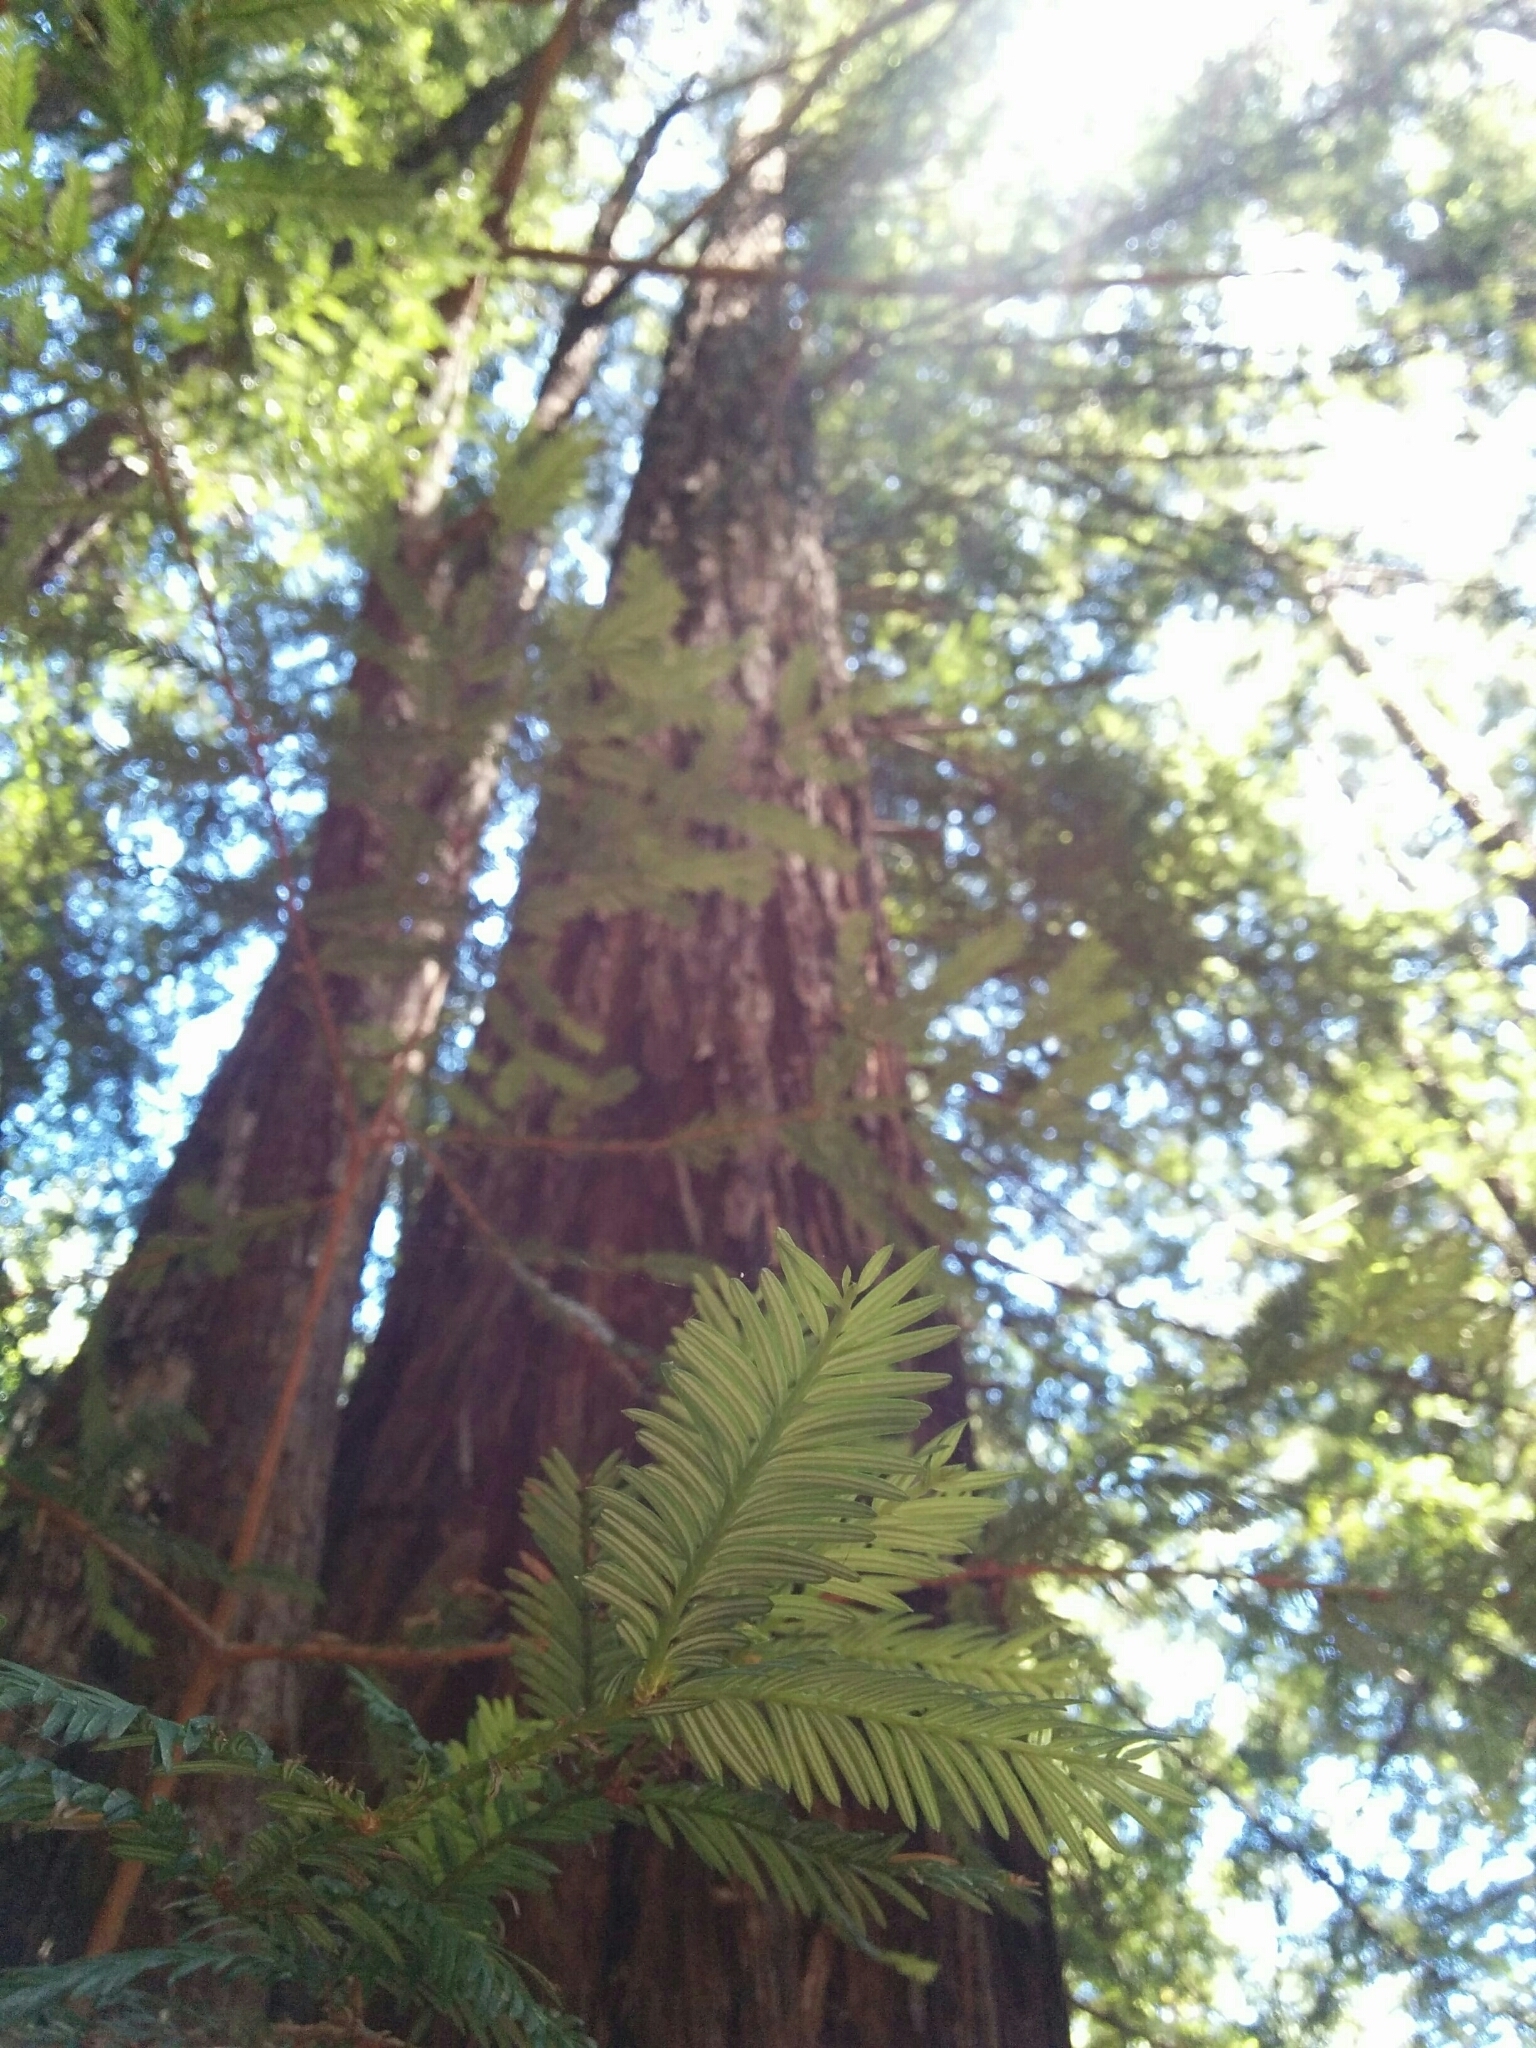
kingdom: Plantae
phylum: Tracheophyta
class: Pinopsida
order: Pinales
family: Cupressaceae
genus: Sequoia
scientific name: Sequoia sempervirens
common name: Coast redwood
